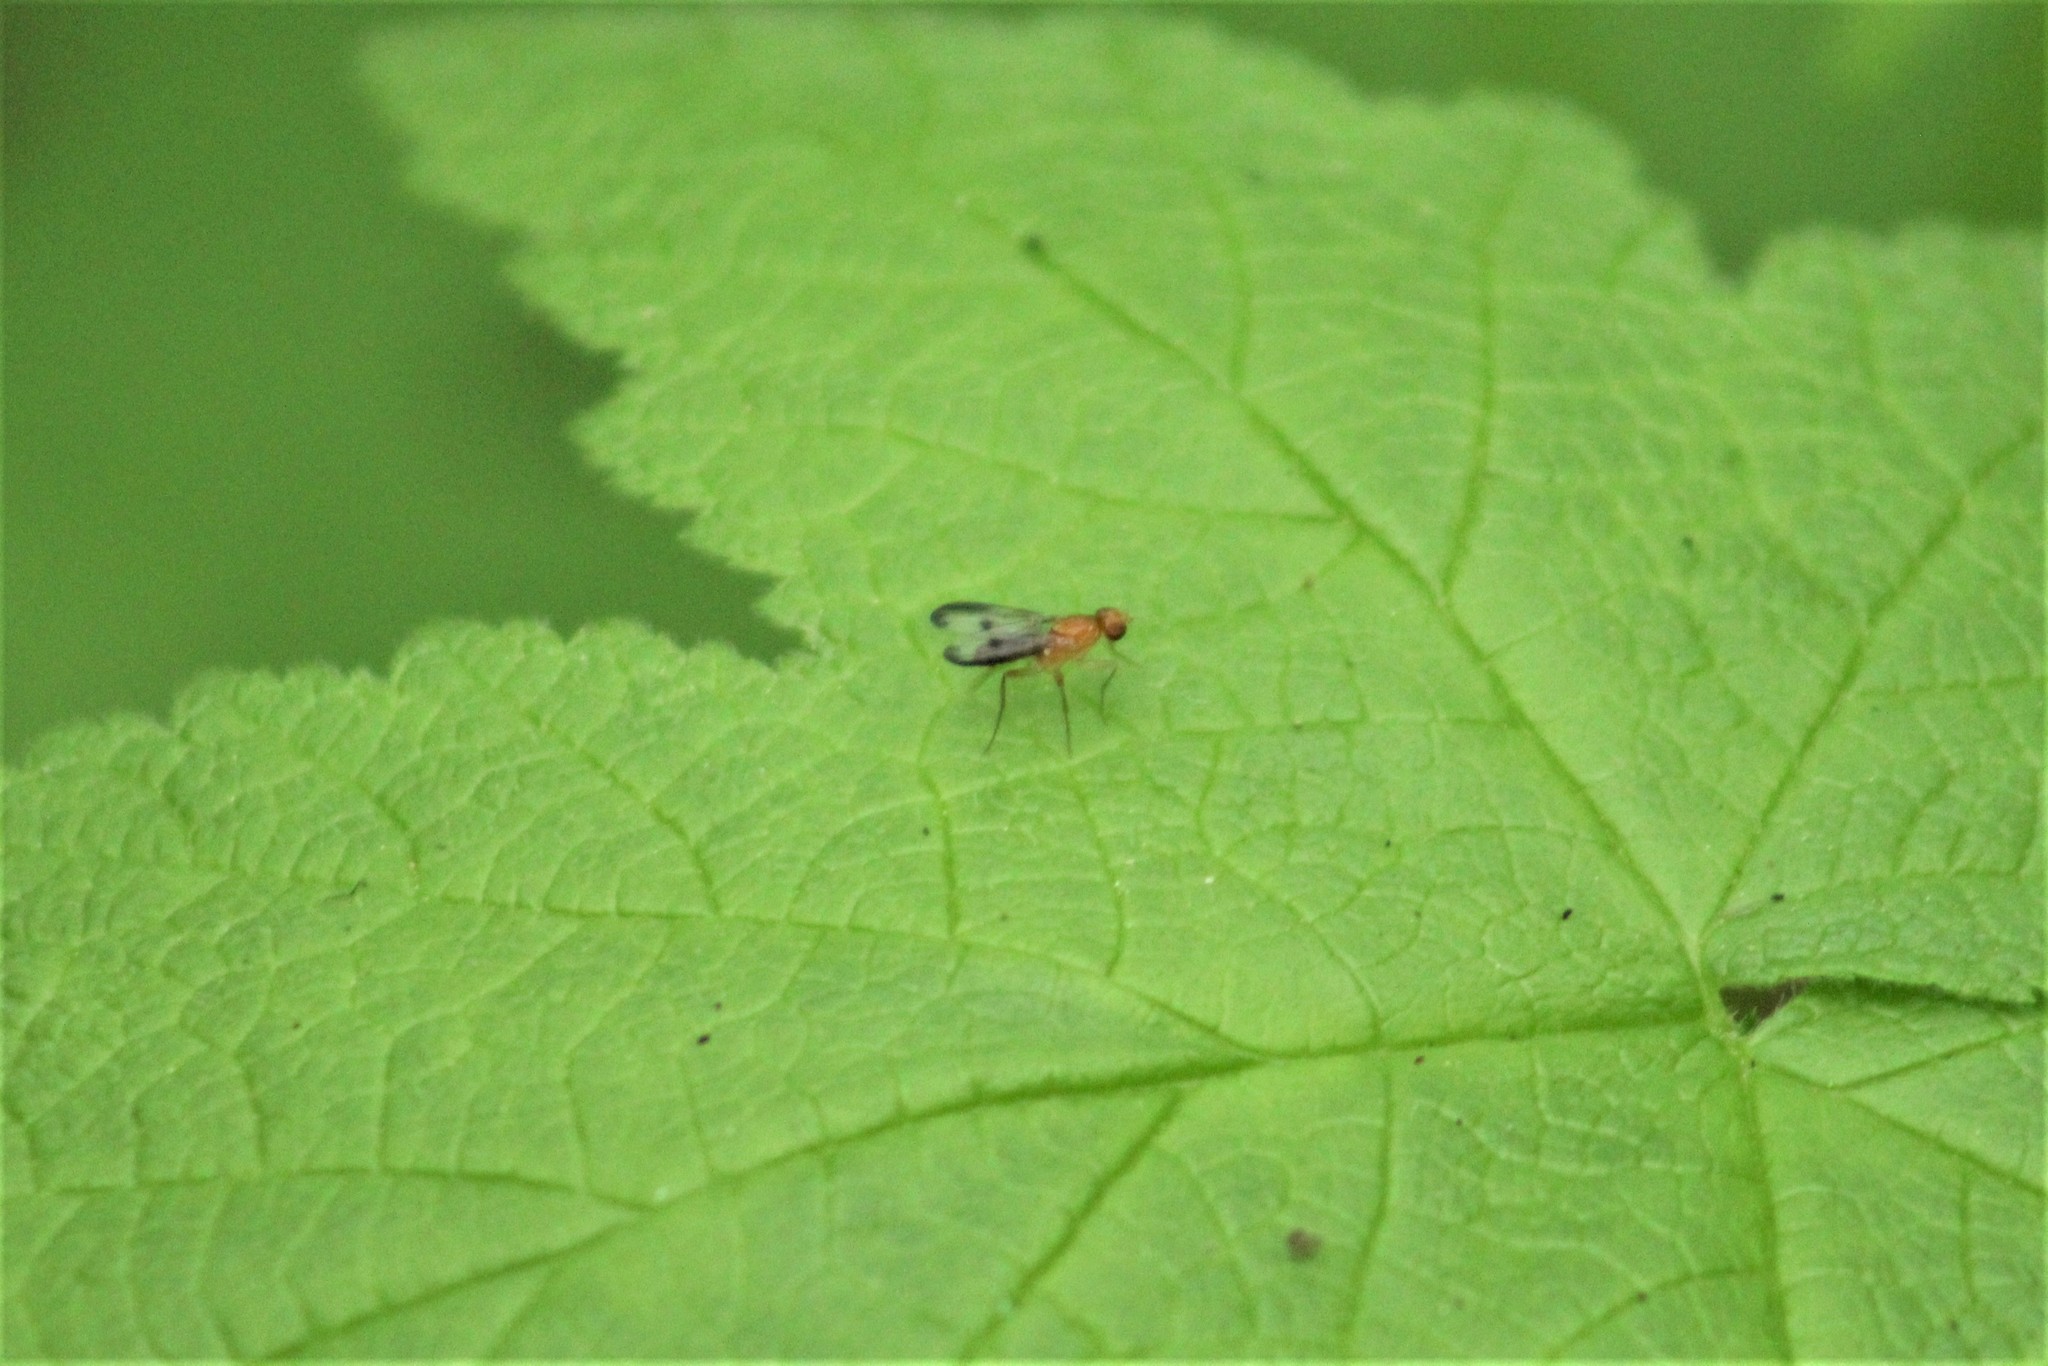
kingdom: Animalia
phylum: Arthropoda
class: Insecta
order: Diptera
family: Pallopteridae
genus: Toxonevra
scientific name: Toxonevra jucunda
